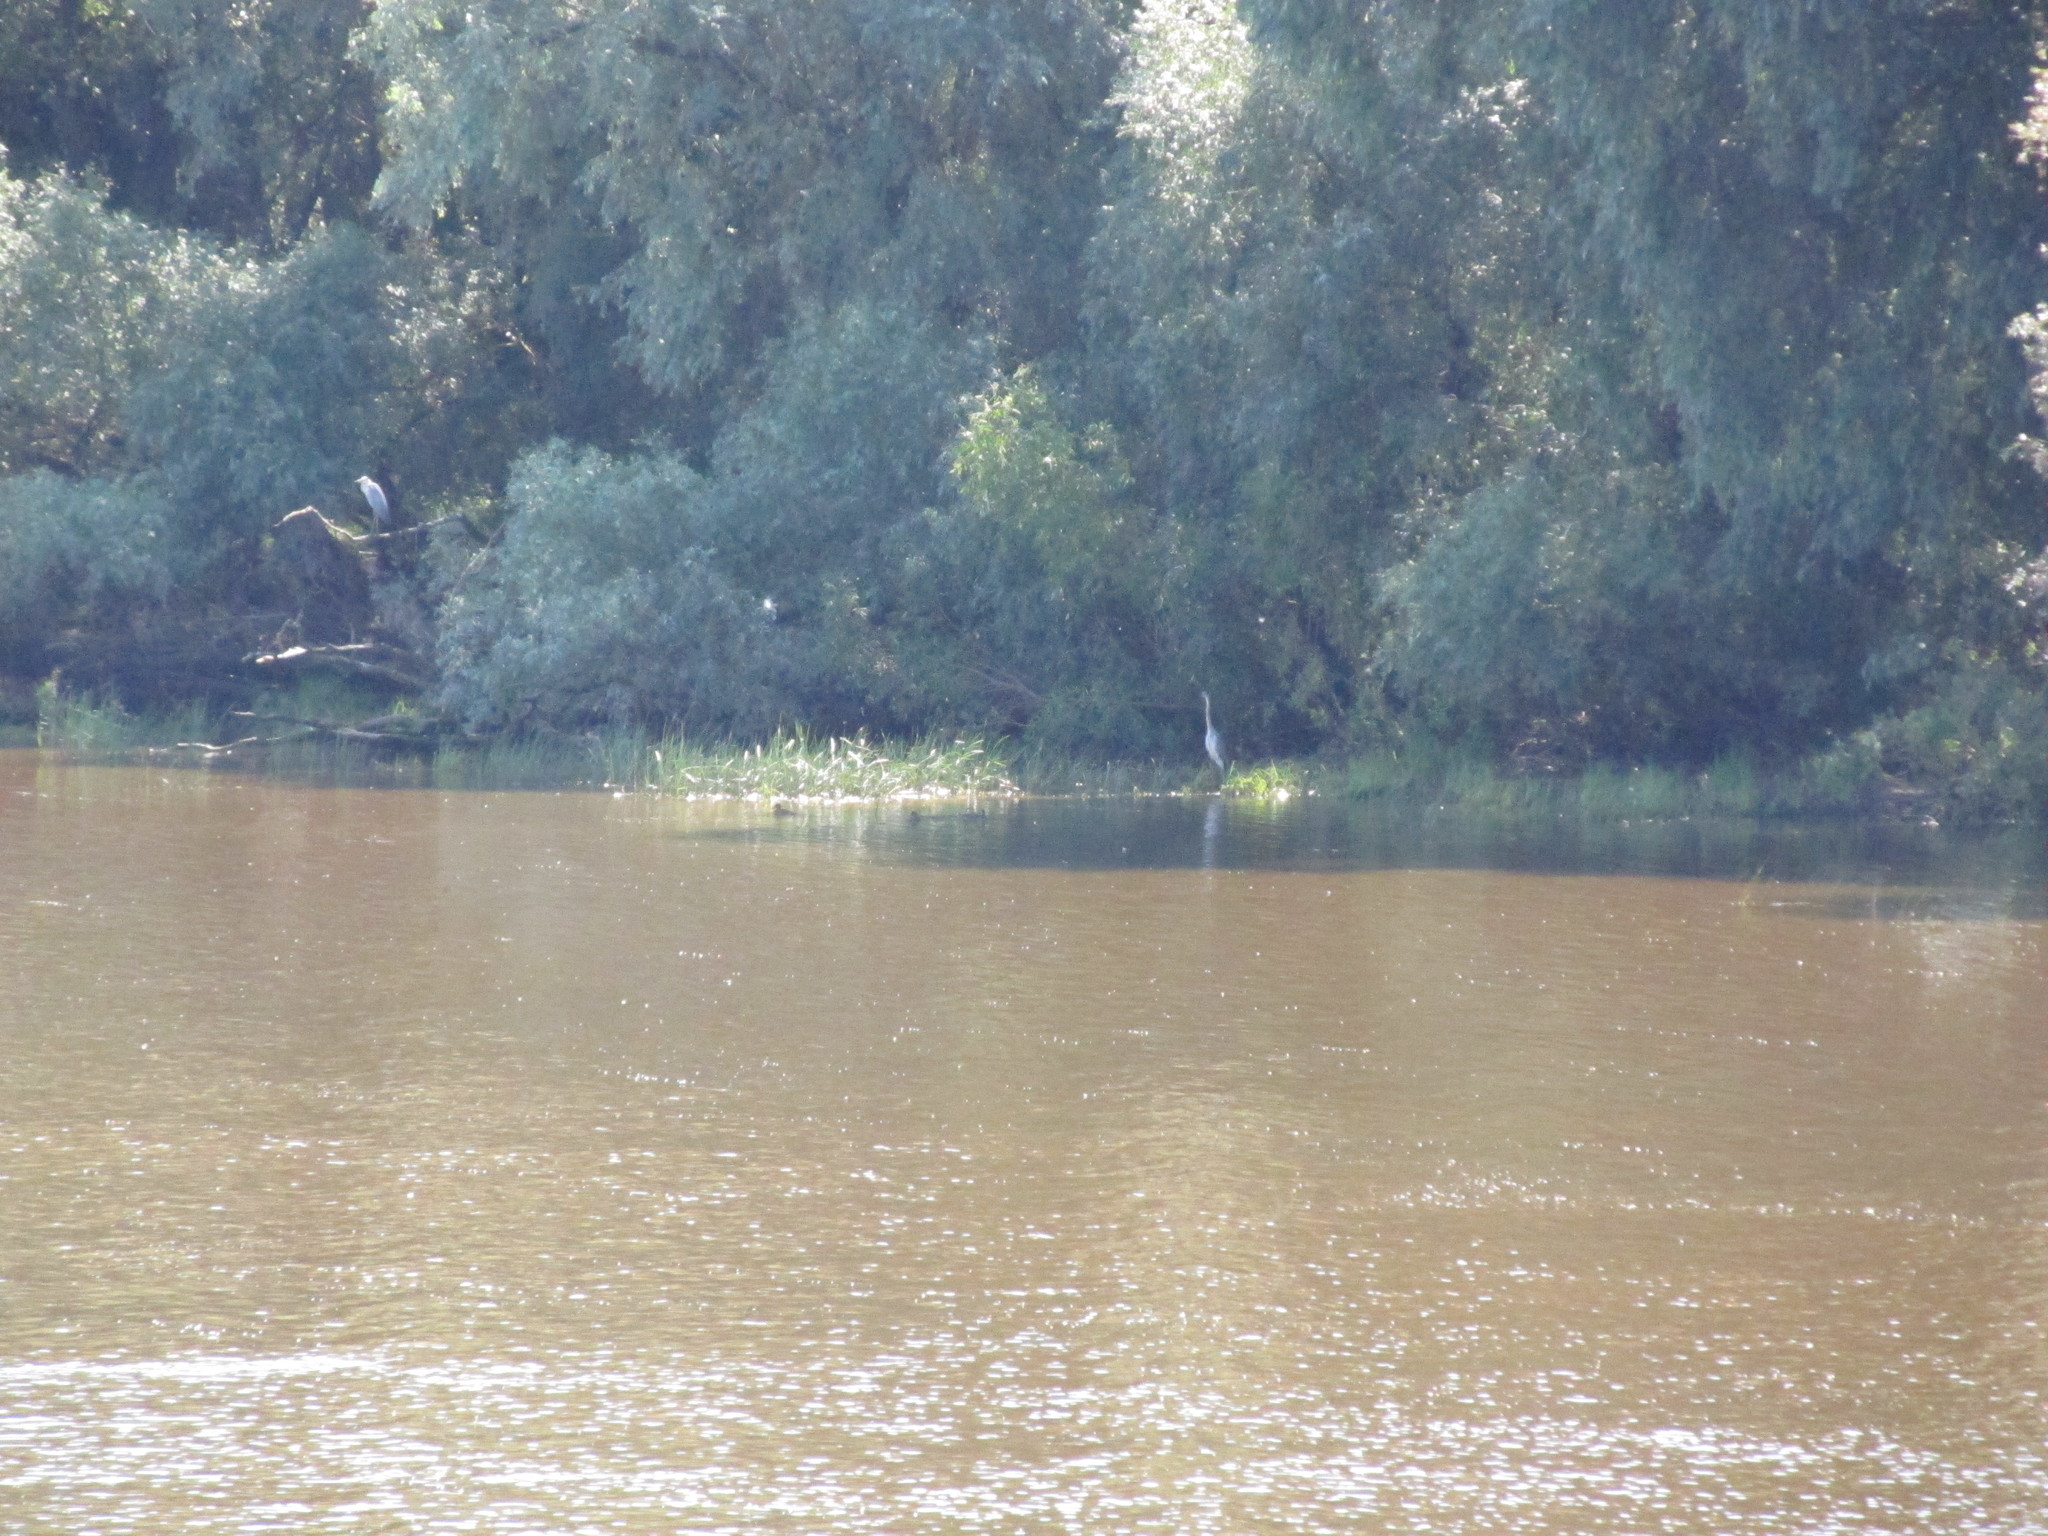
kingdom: Animalia
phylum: Chordata
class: Aves
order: Pelecaniformes
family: Ardeidae
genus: Ardea
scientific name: Ardea cinerea
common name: Grey heron
